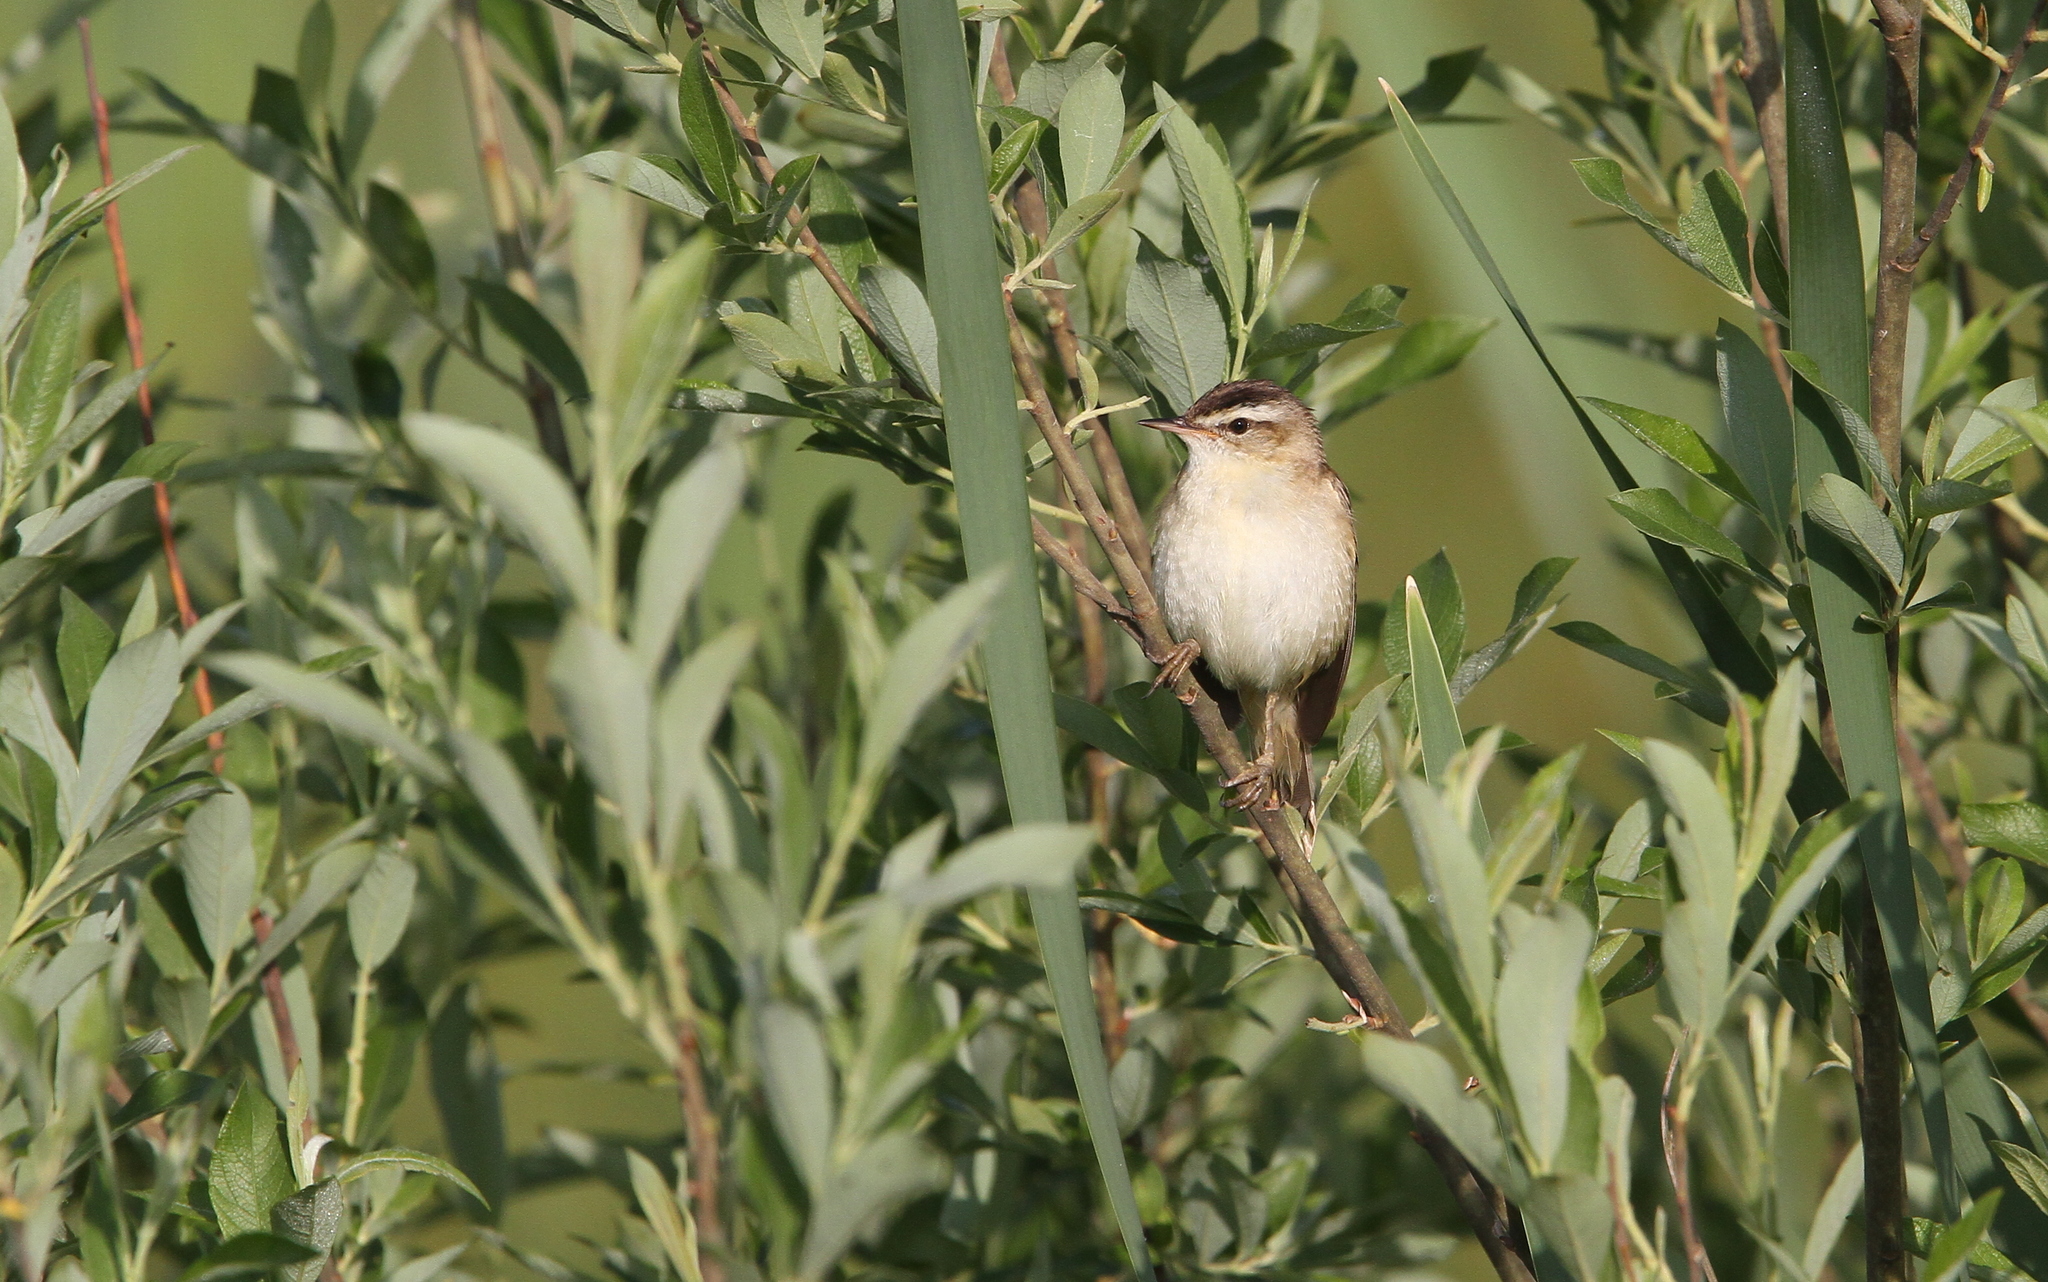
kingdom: Animalia
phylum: Chordata
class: Aves
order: Passeriformes
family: Acrocephalidae
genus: Acrocephalus
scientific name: Acrocephalus schoenobaenus
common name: Sedge warbler
